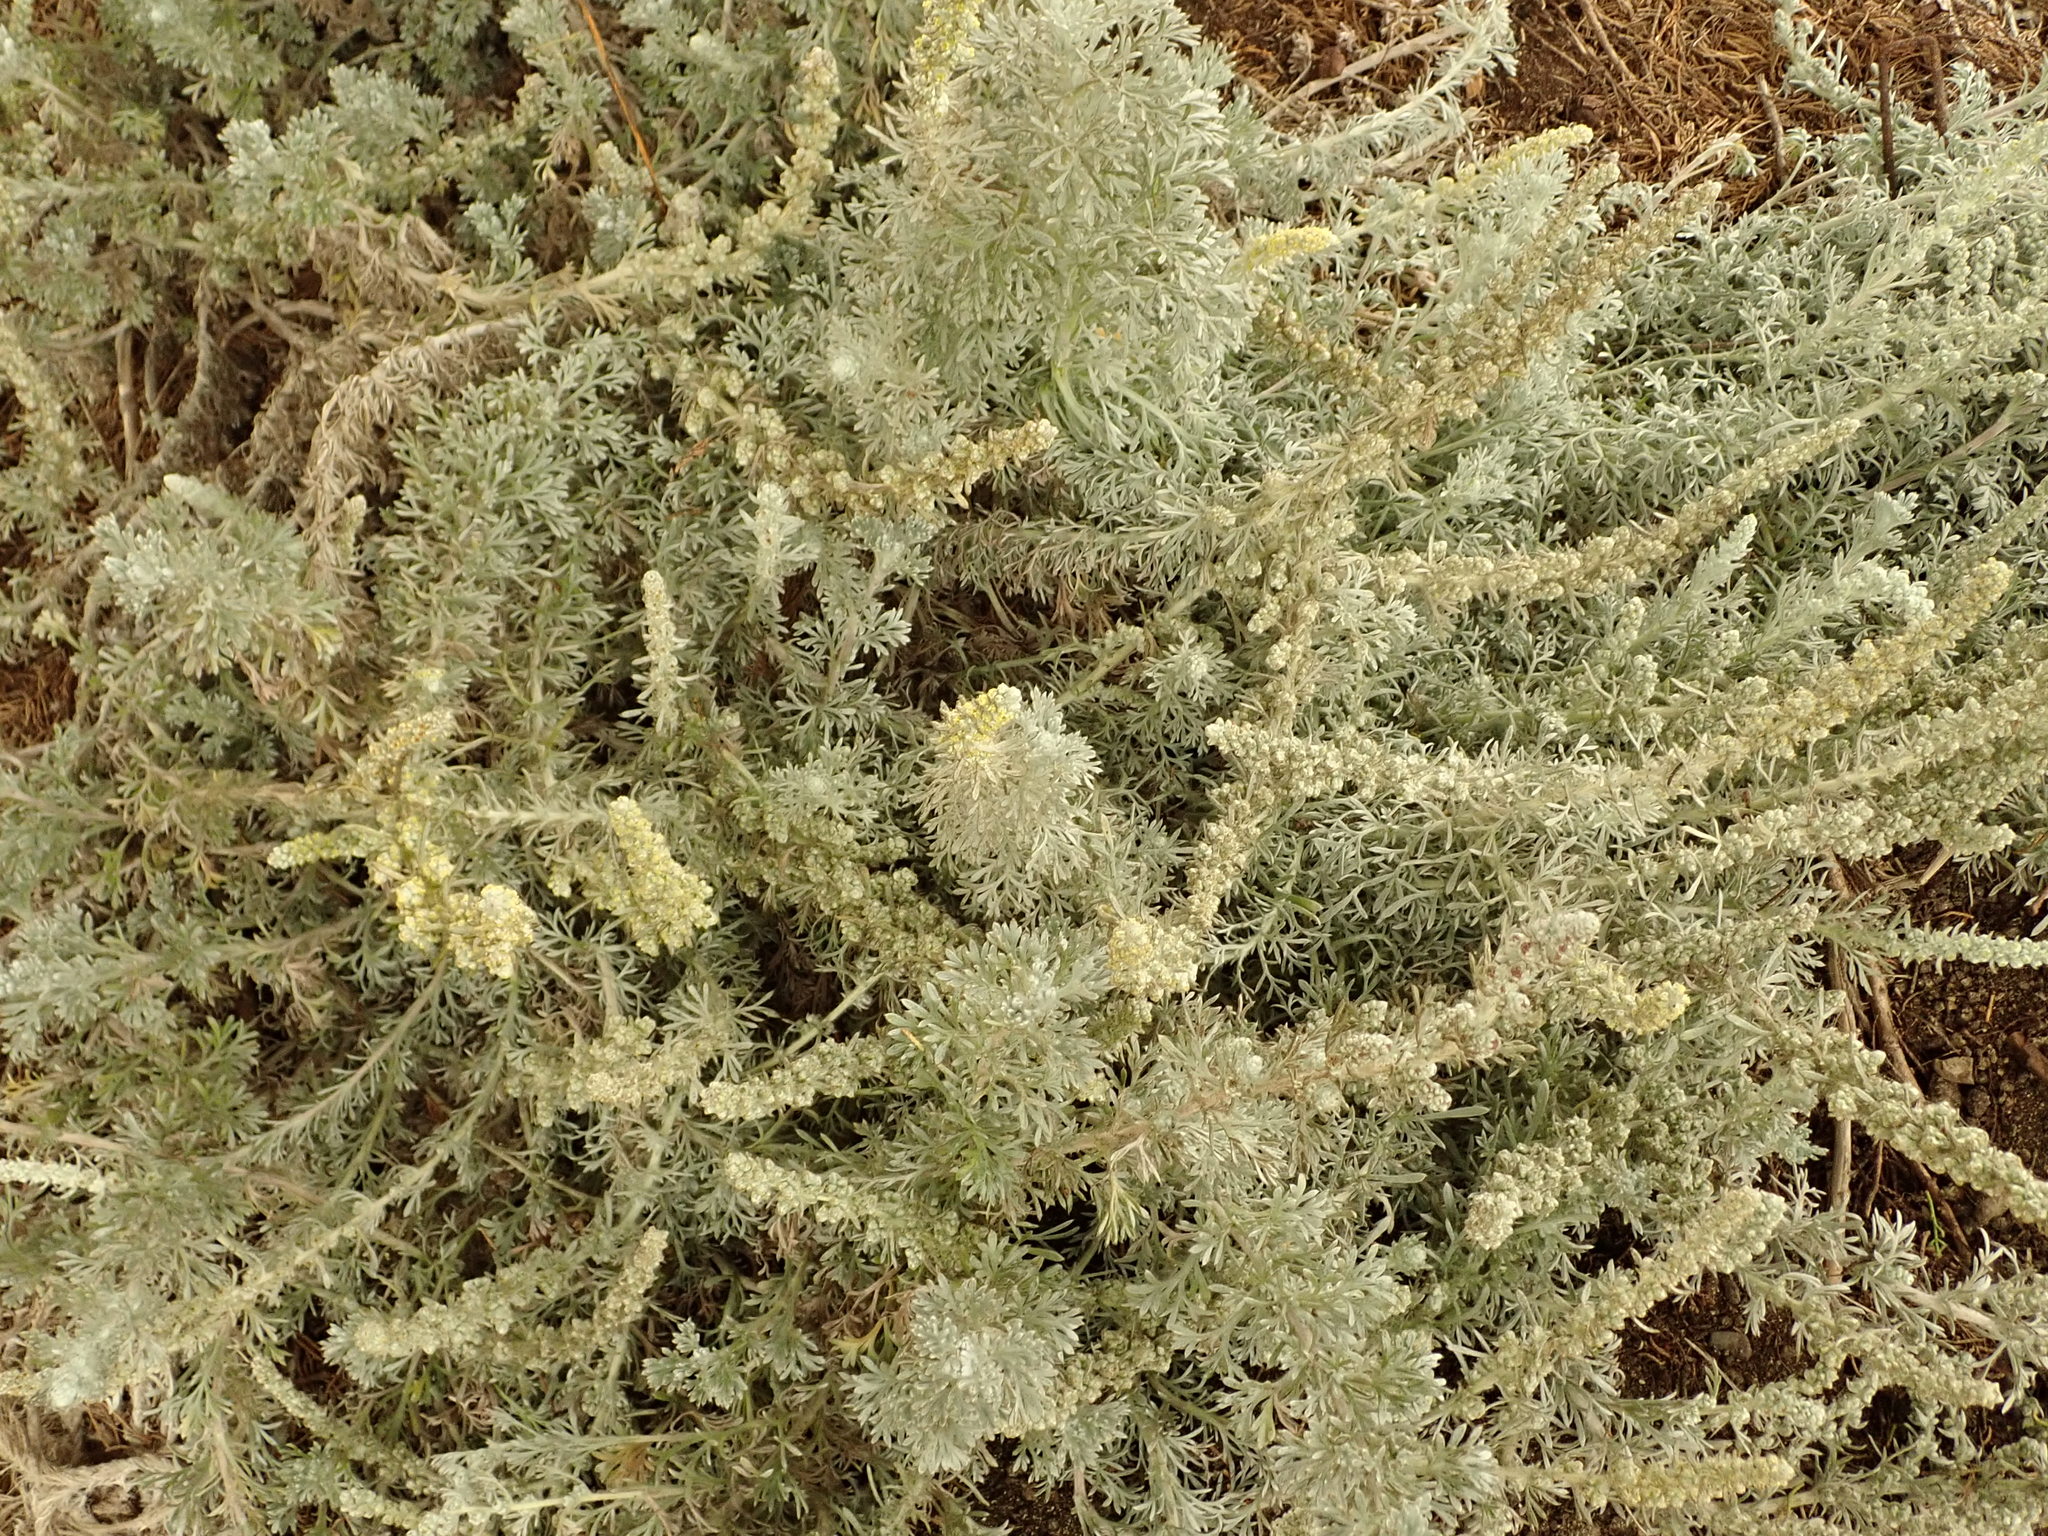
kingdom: Plantae
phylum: Tracheophyta
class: Magnoliopsida
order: Asterales
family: Asteraceae
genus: Artemisia
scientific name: Artemisia pycnocephala
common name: Coastal sagewort
